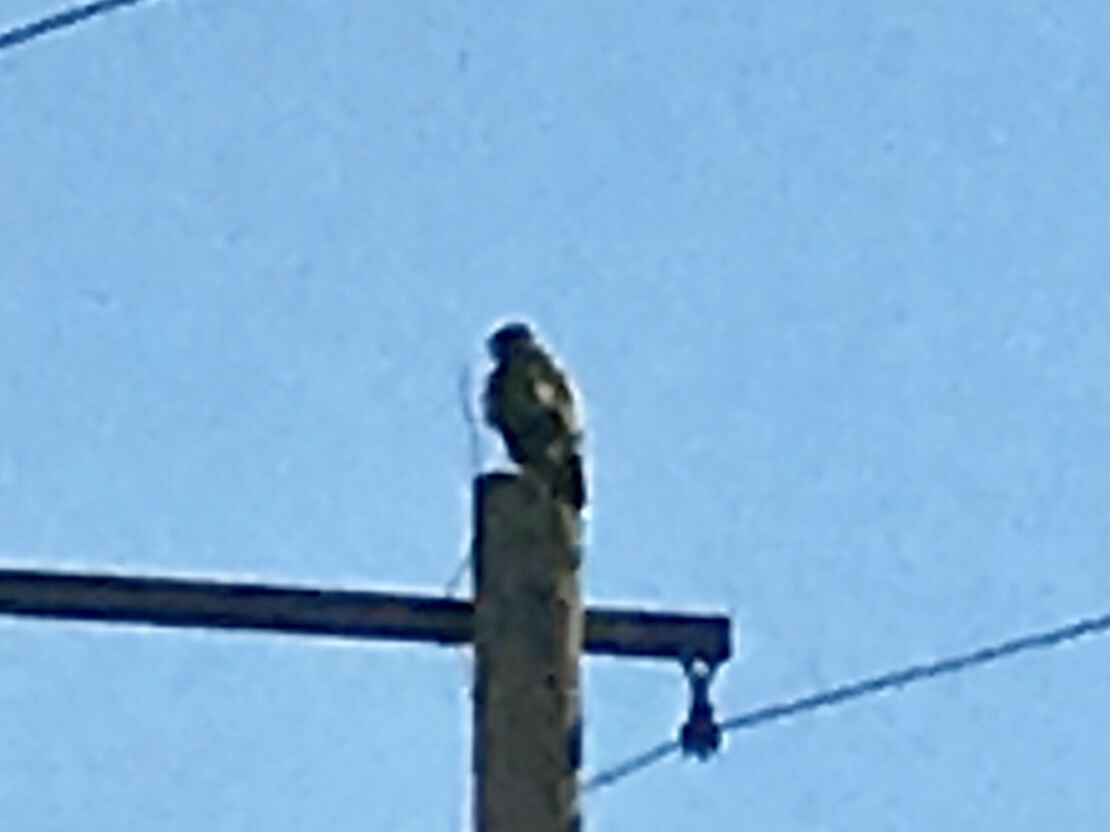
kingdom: Animalia
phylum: Chordata
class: Aves
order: Accipitriformes
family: Accipitridae
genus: Buteo
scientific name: Buteo jamaicensis
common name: Red-tailed hawk
